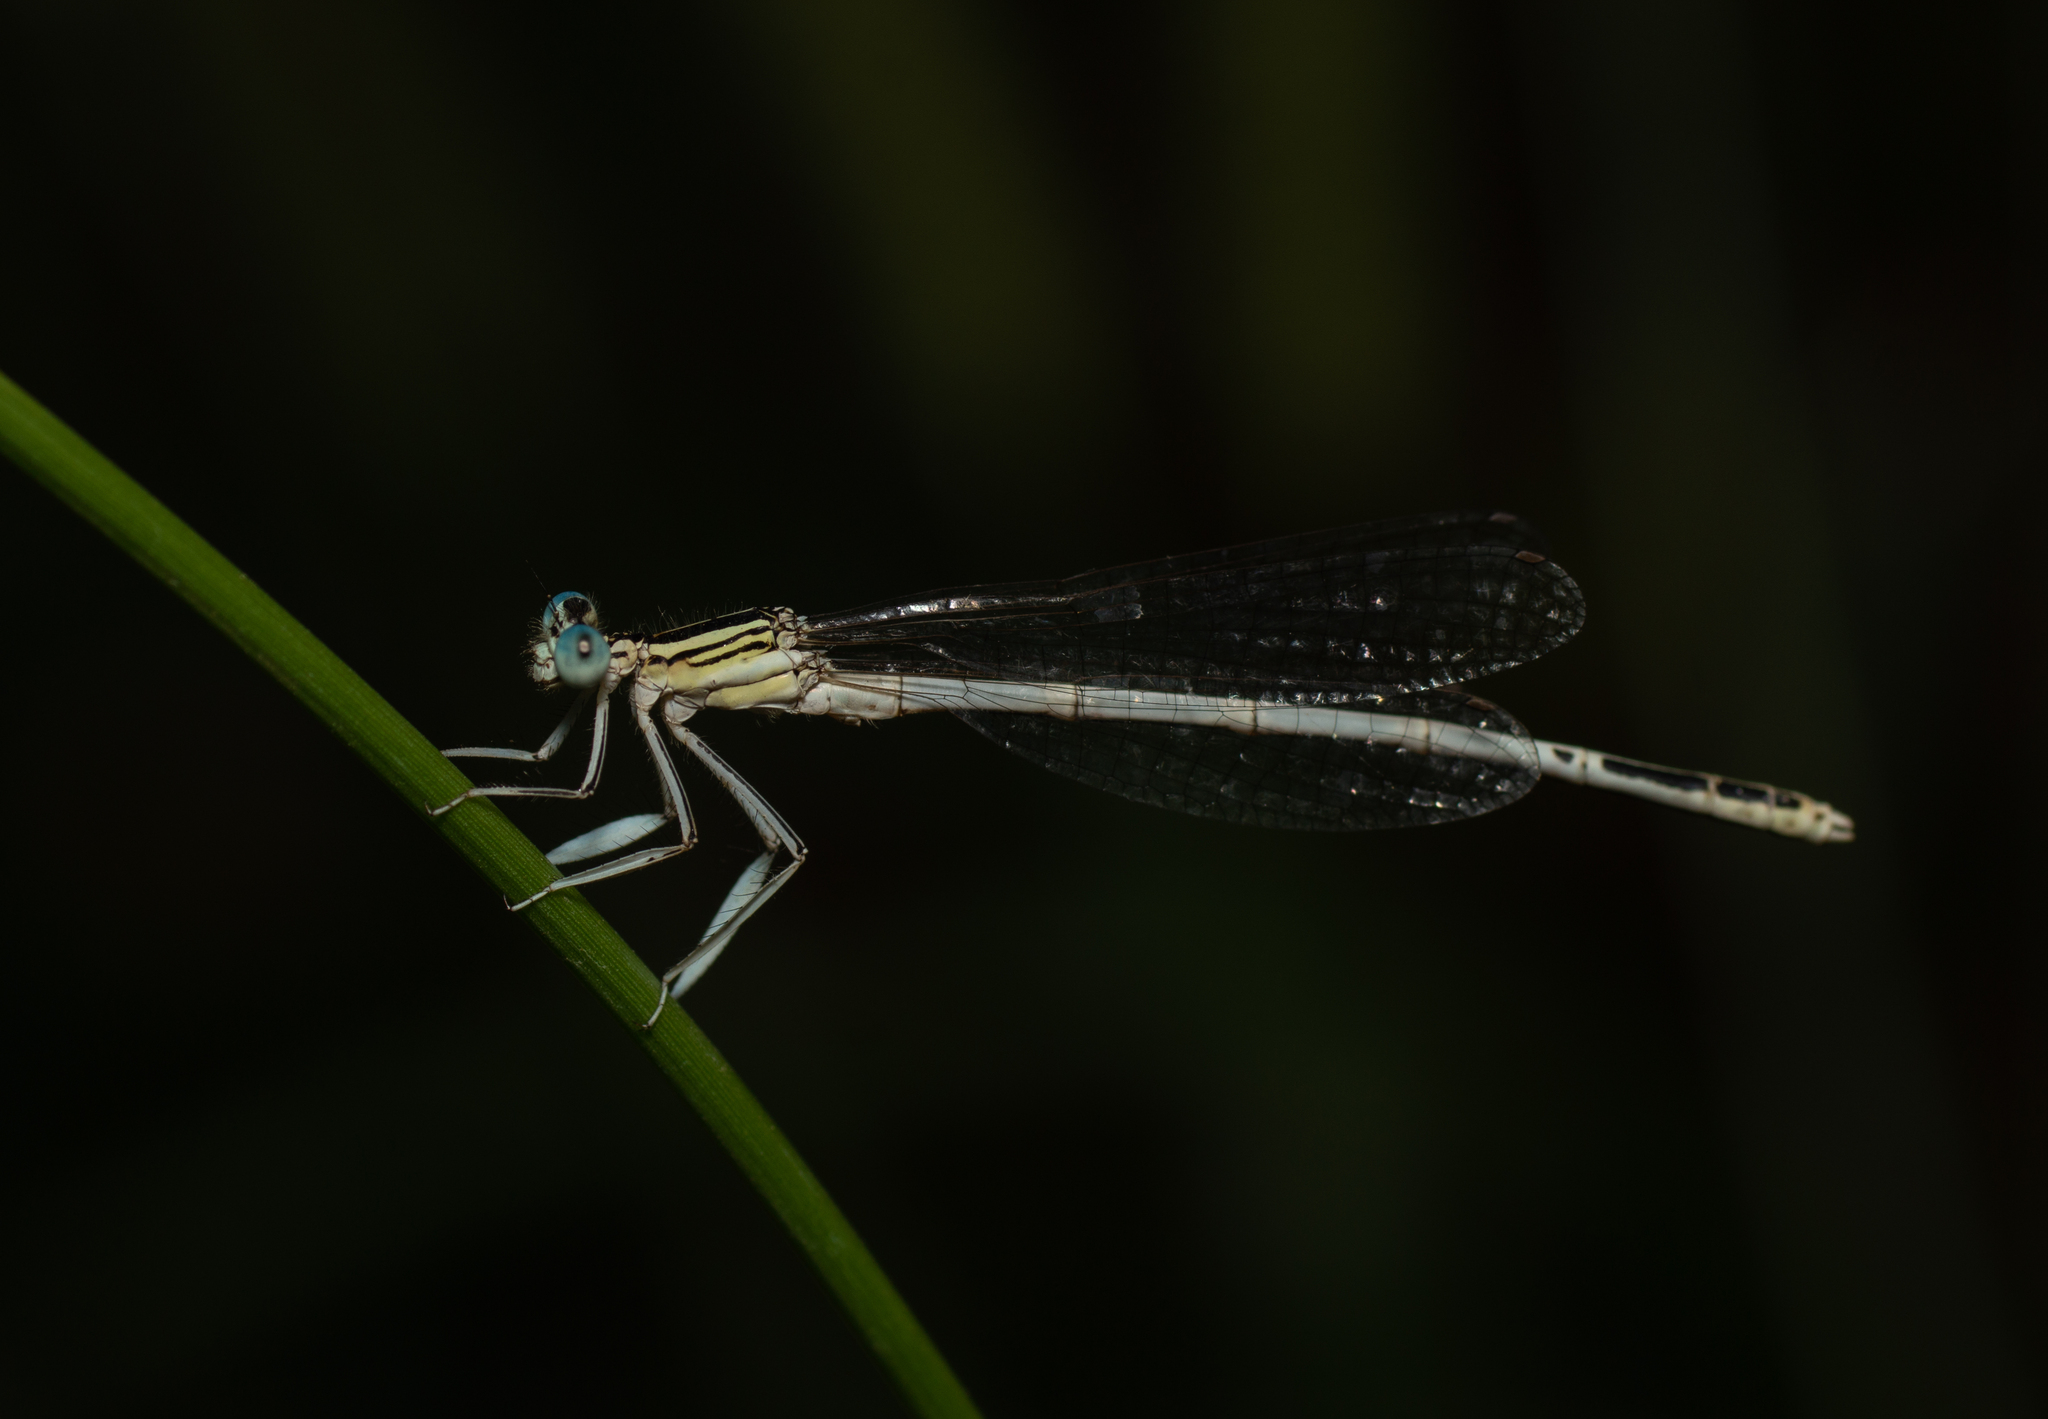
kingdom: Animalia
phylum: Arthropoda
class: Insecta
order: Odonata
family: Platycnemididae
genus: Platycnemis
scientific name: Platycnemis latipes
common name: White featherleg
